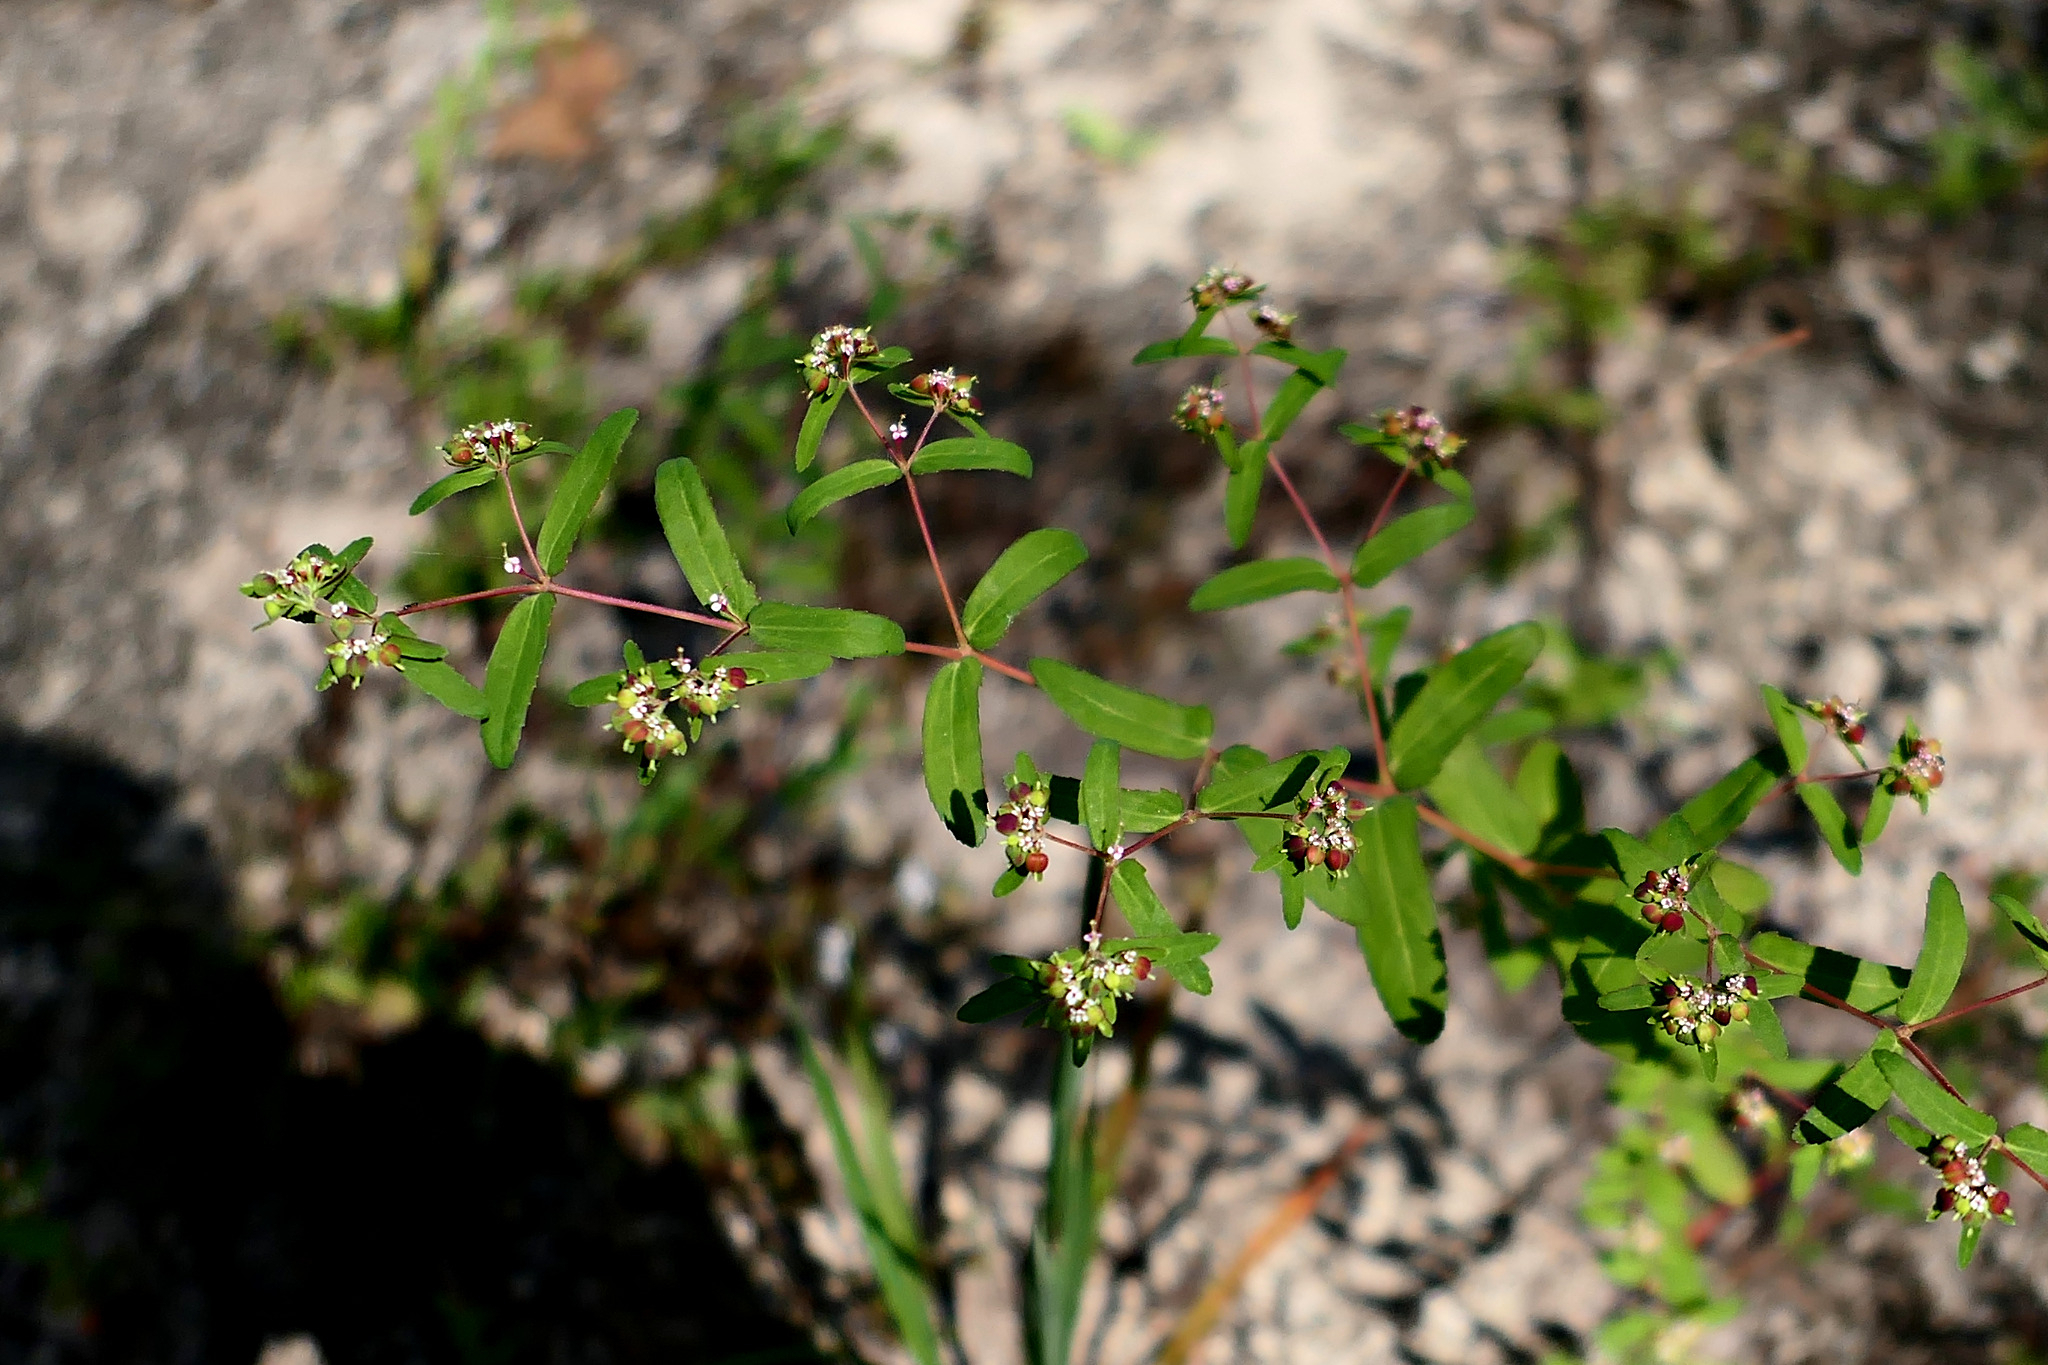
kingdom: Plantae
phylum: Tracheophyta
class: Magnoliopsida
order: Malpighiales
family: Euphorbiaceae
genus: Euphorbia
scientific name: Euphorbia nutans
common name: Eyebane
